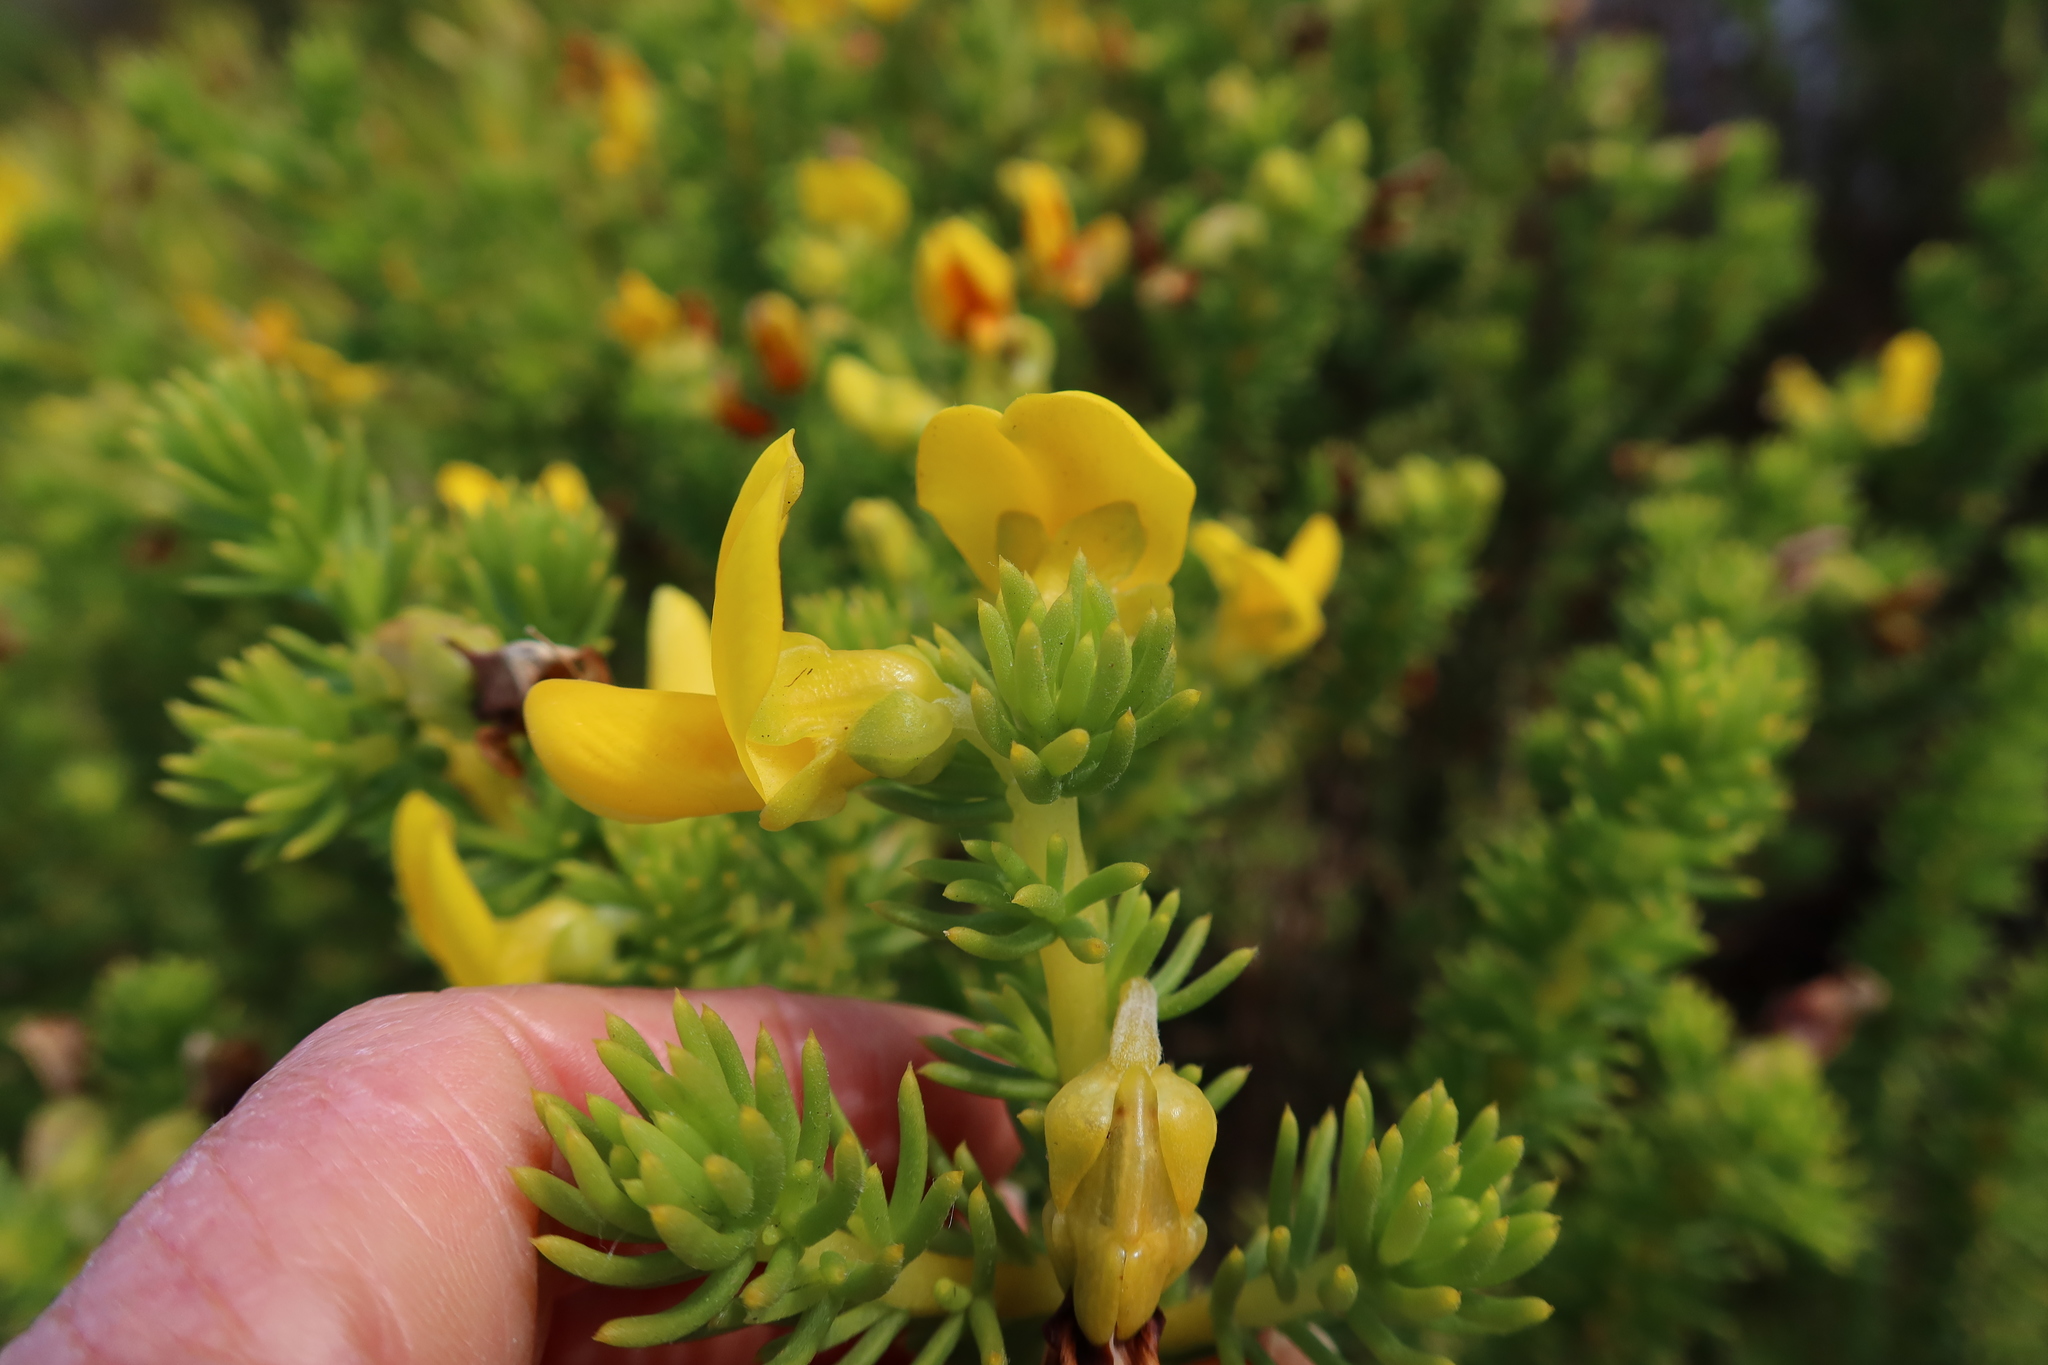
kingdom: Plantae
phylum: Tracheophyta
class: Magnoliopsida
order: Fabales
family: Fabaceae
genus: Aspalathus
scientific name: Aspalathus capensis
